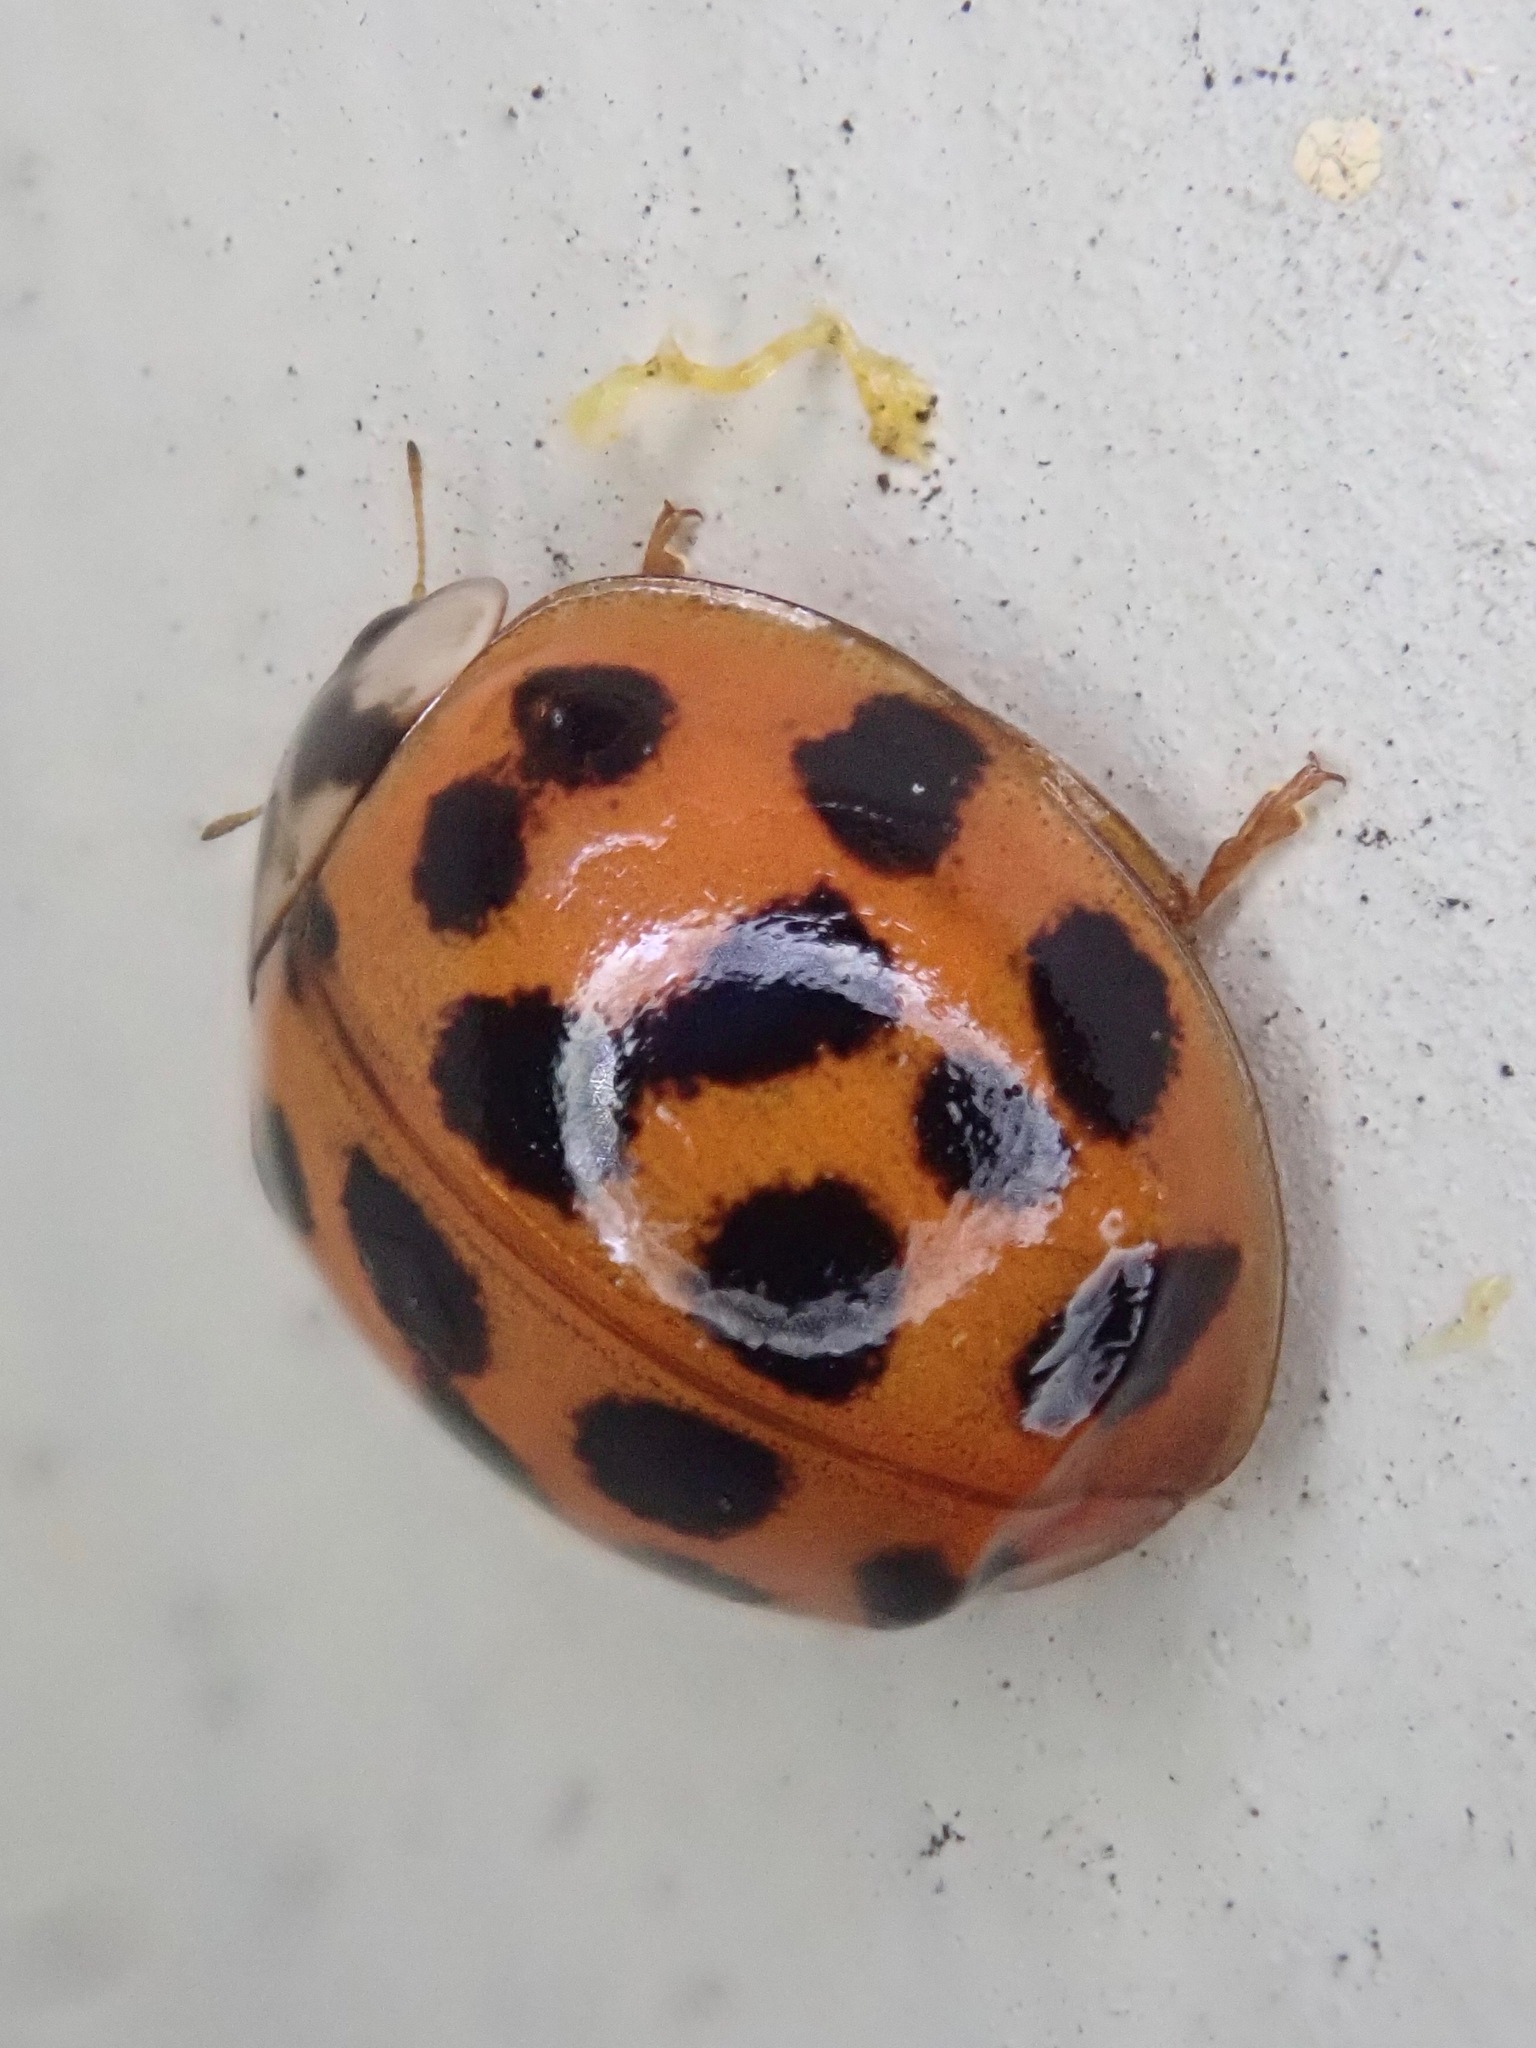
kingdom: Animalia
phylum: Arthropoda
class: Insecta
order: Coleoptera
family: Coccinellidae
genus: Harmonia
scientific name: Harmonia axyridis
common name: Harlequin ladybird
